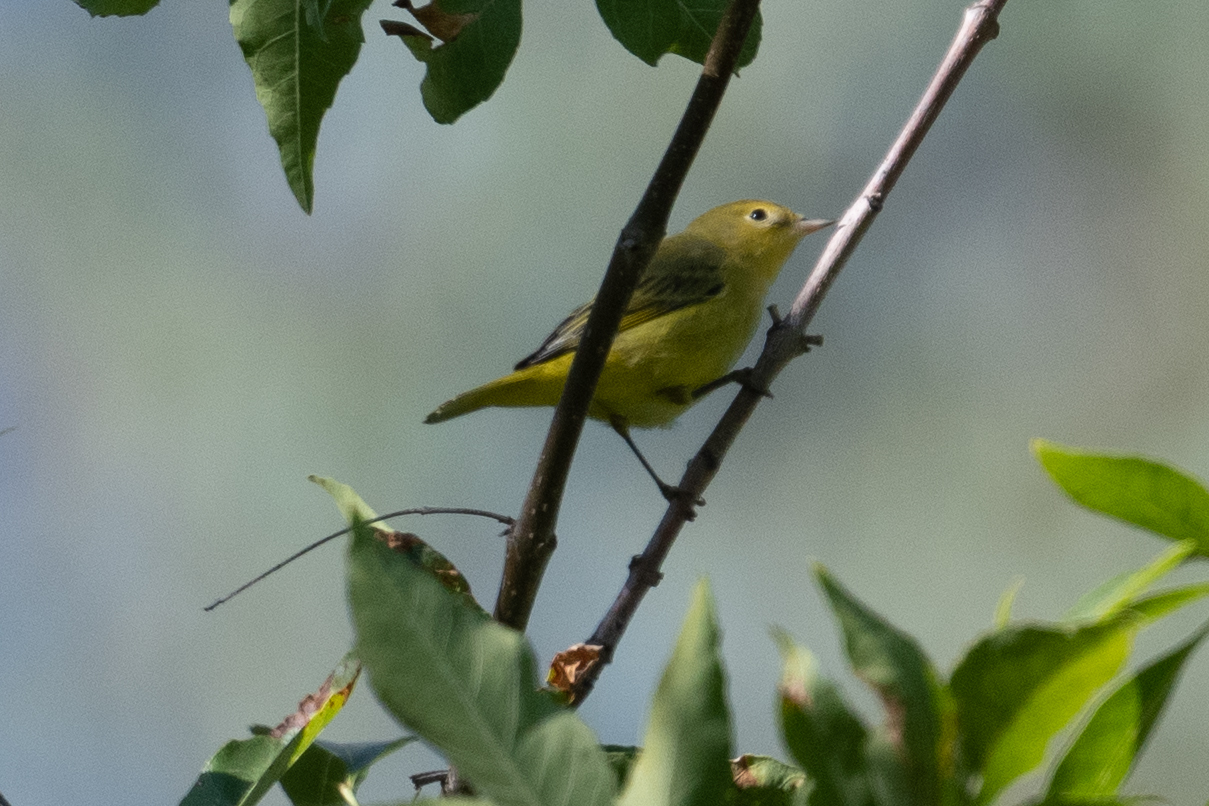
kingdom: Animalia
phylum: Chordata
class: Aves
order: Passeriformes
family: Parulidae
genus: Setophaga
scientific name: Setophaga petechia
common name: Yellow warbler
